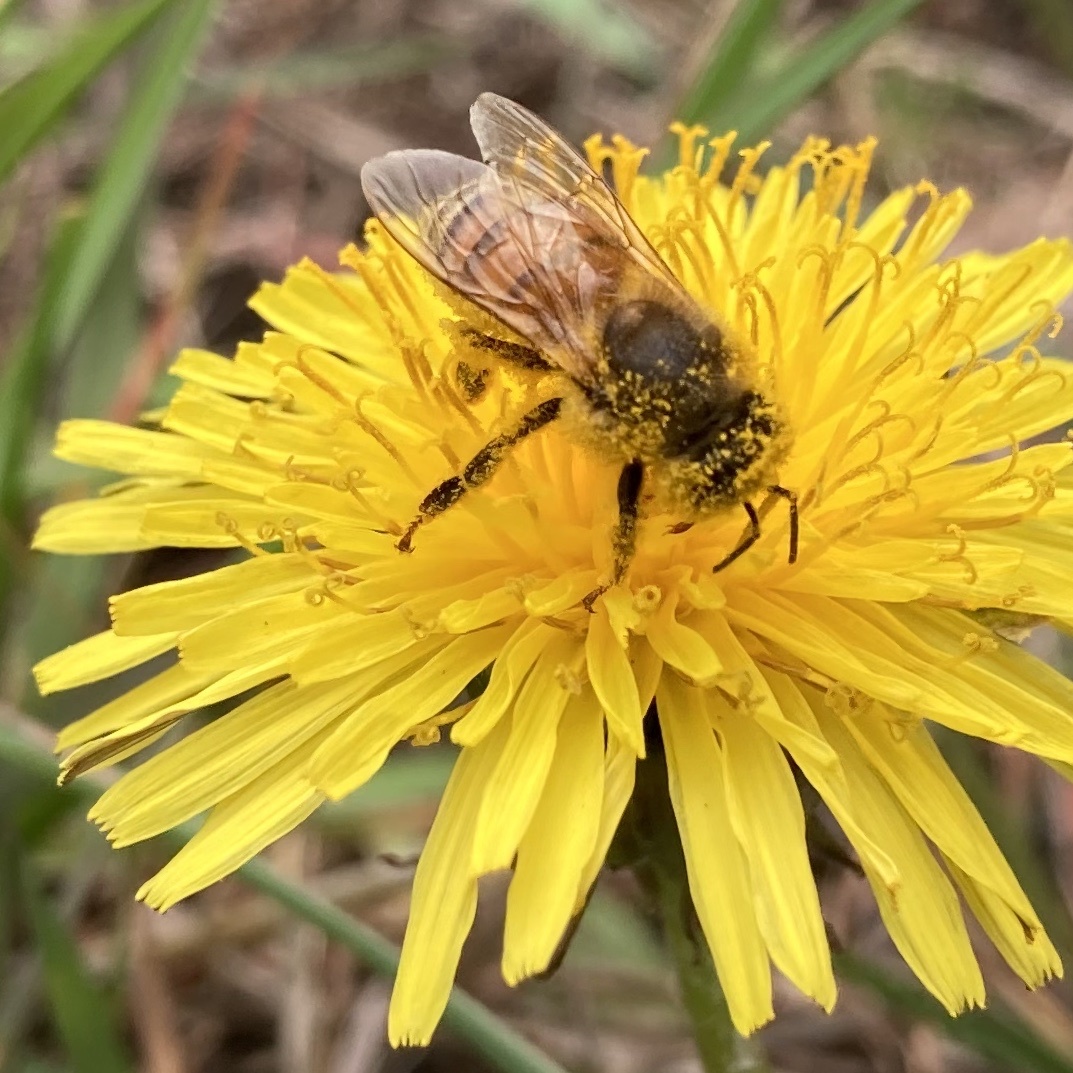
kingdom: Animalia
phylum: Arthropoda
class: Insecta
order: Hymenoptera
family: Apidae
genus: Apis
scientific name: Apis mellifera
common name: Honey bee
